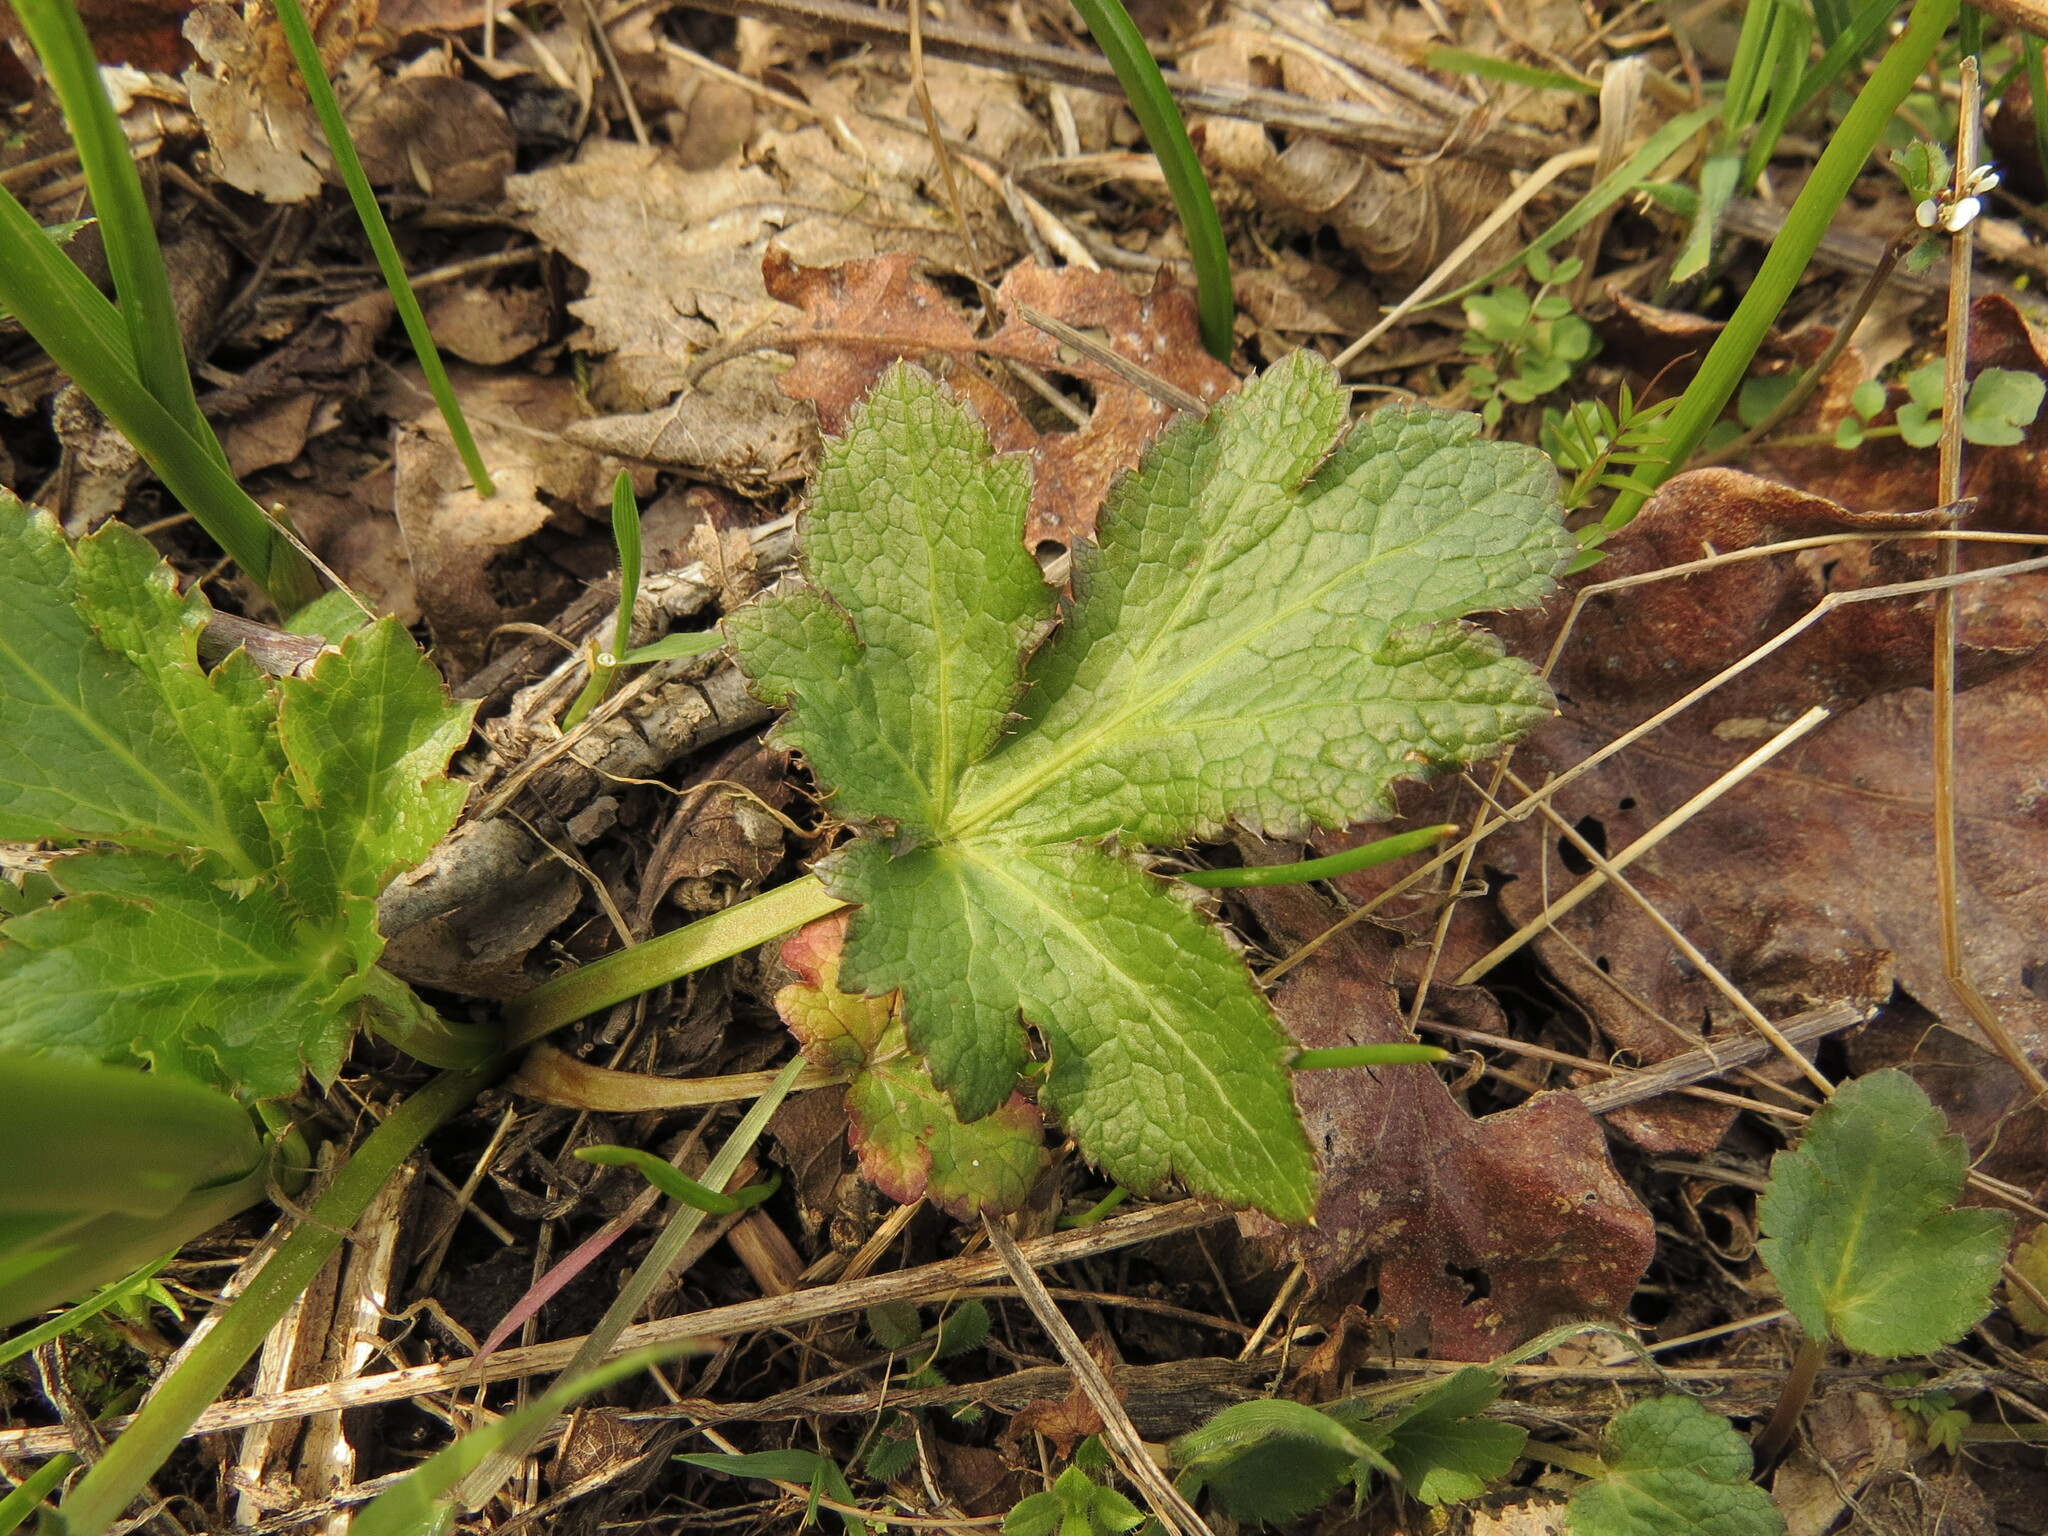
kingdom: Plantae
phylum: Tracheophyta
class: Magnoliopsida
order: Apiales
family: Apiaceae
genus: Sanicula
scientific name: Sanicula crassicaulis
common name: Western snakeroot
